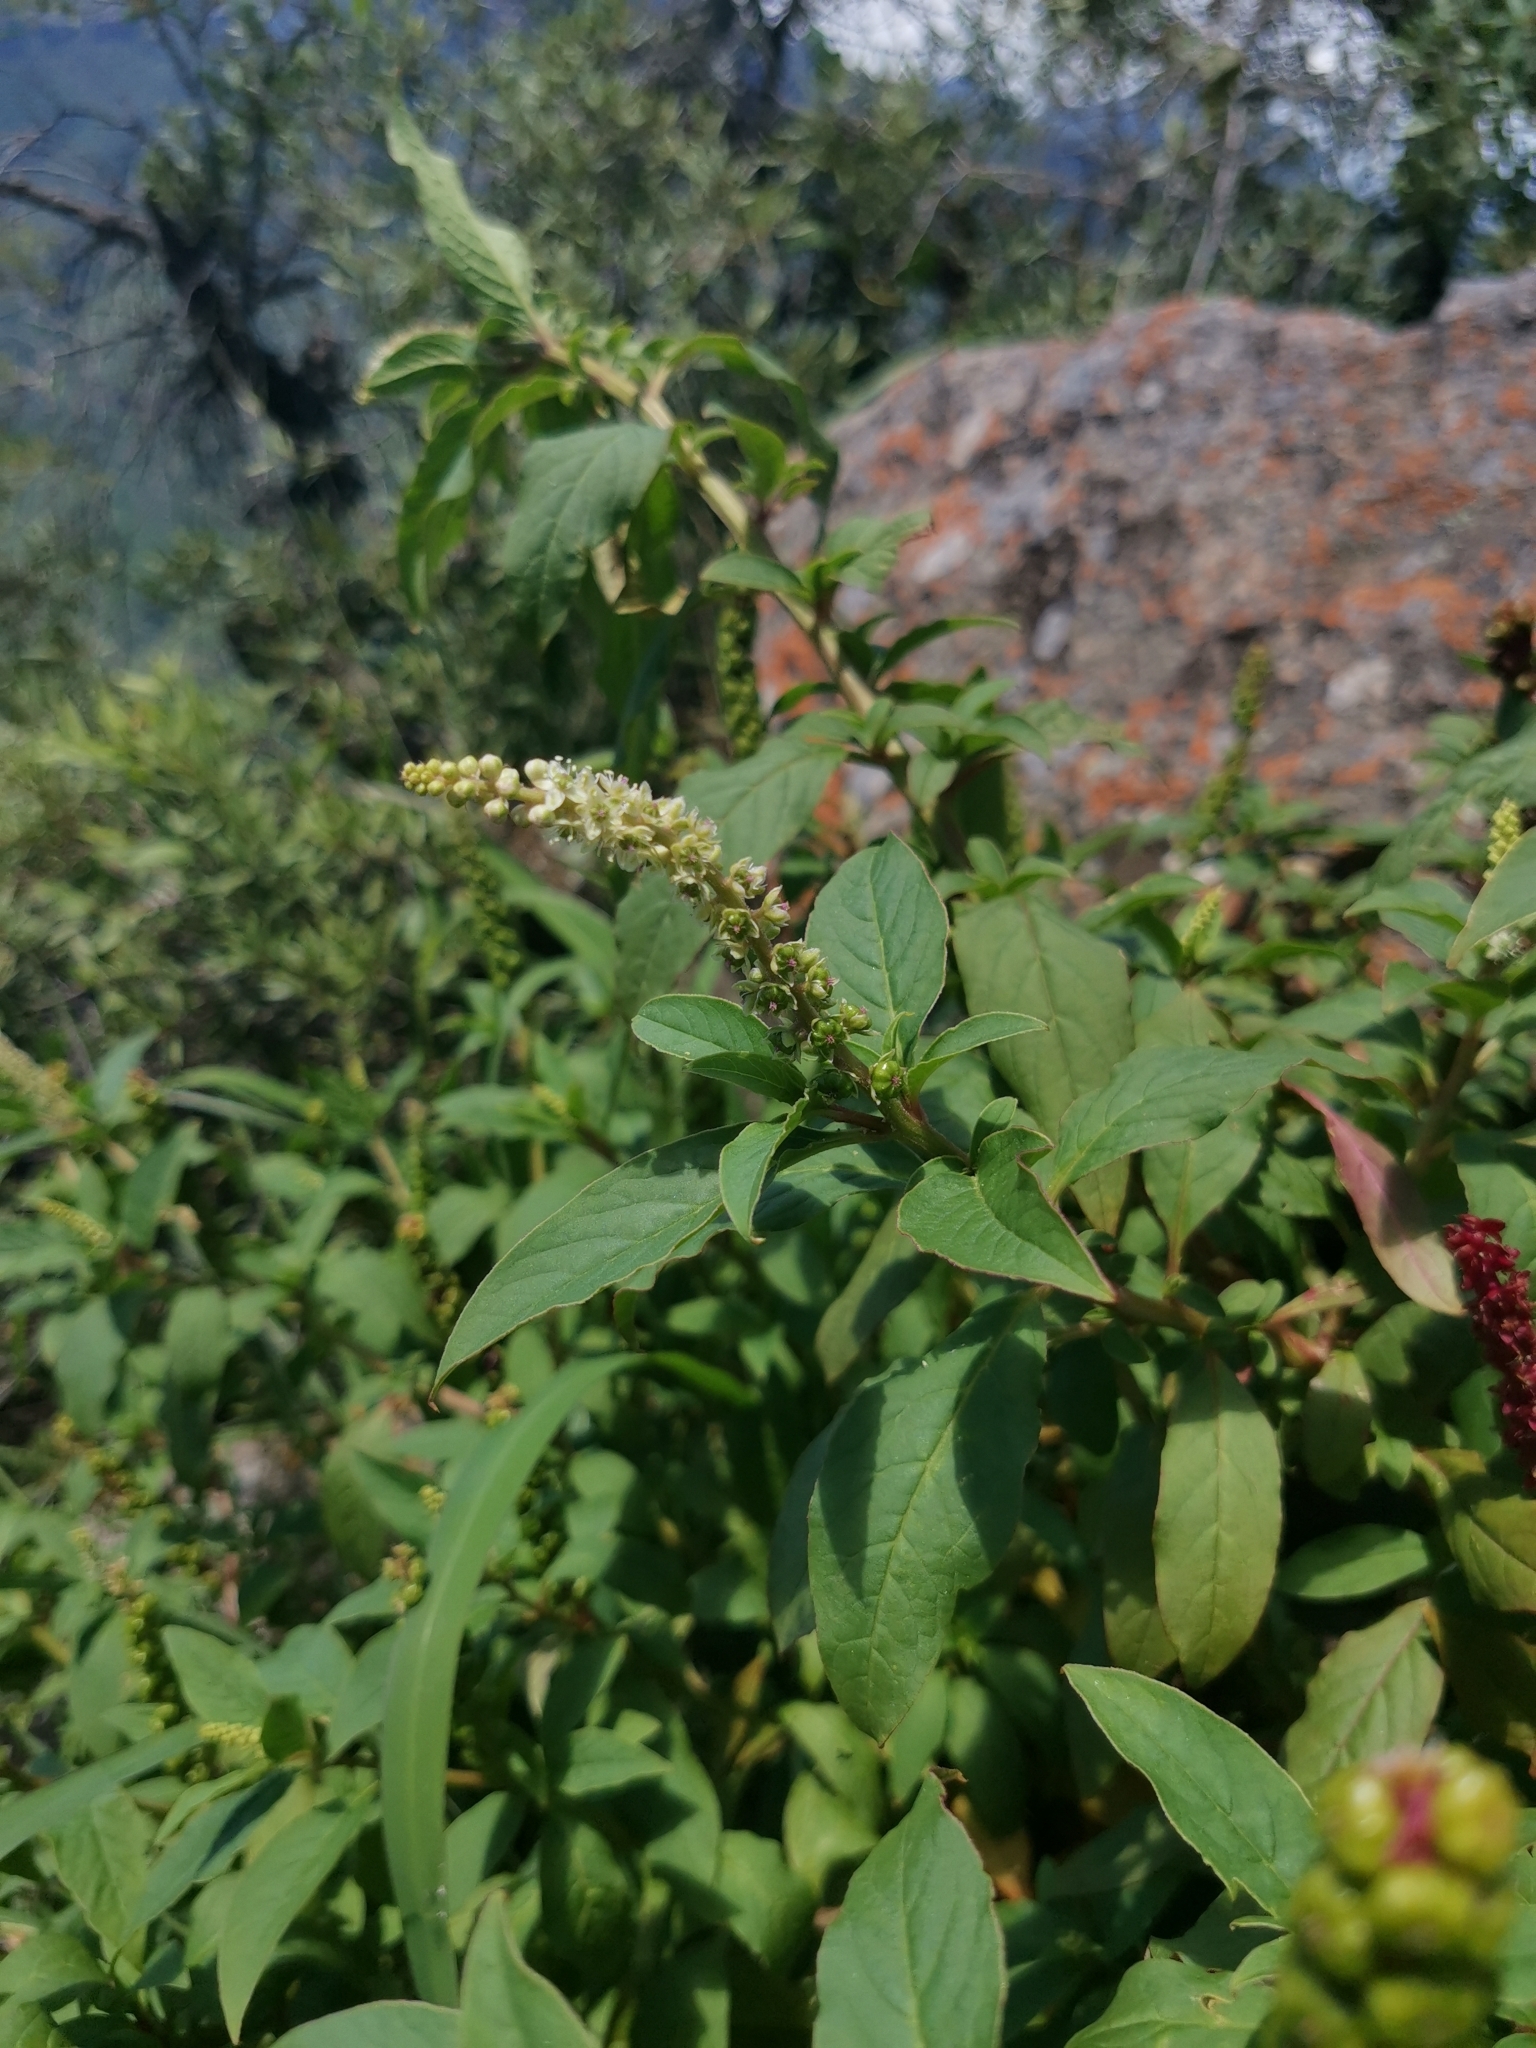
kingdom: Plantae
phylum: Tracheophyta
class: Magnoliopsida
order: Caryophyllales
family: Phytolaccaceae
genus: Phytolacca
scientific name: Phytolacca icosandra
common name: Button pokeweed
